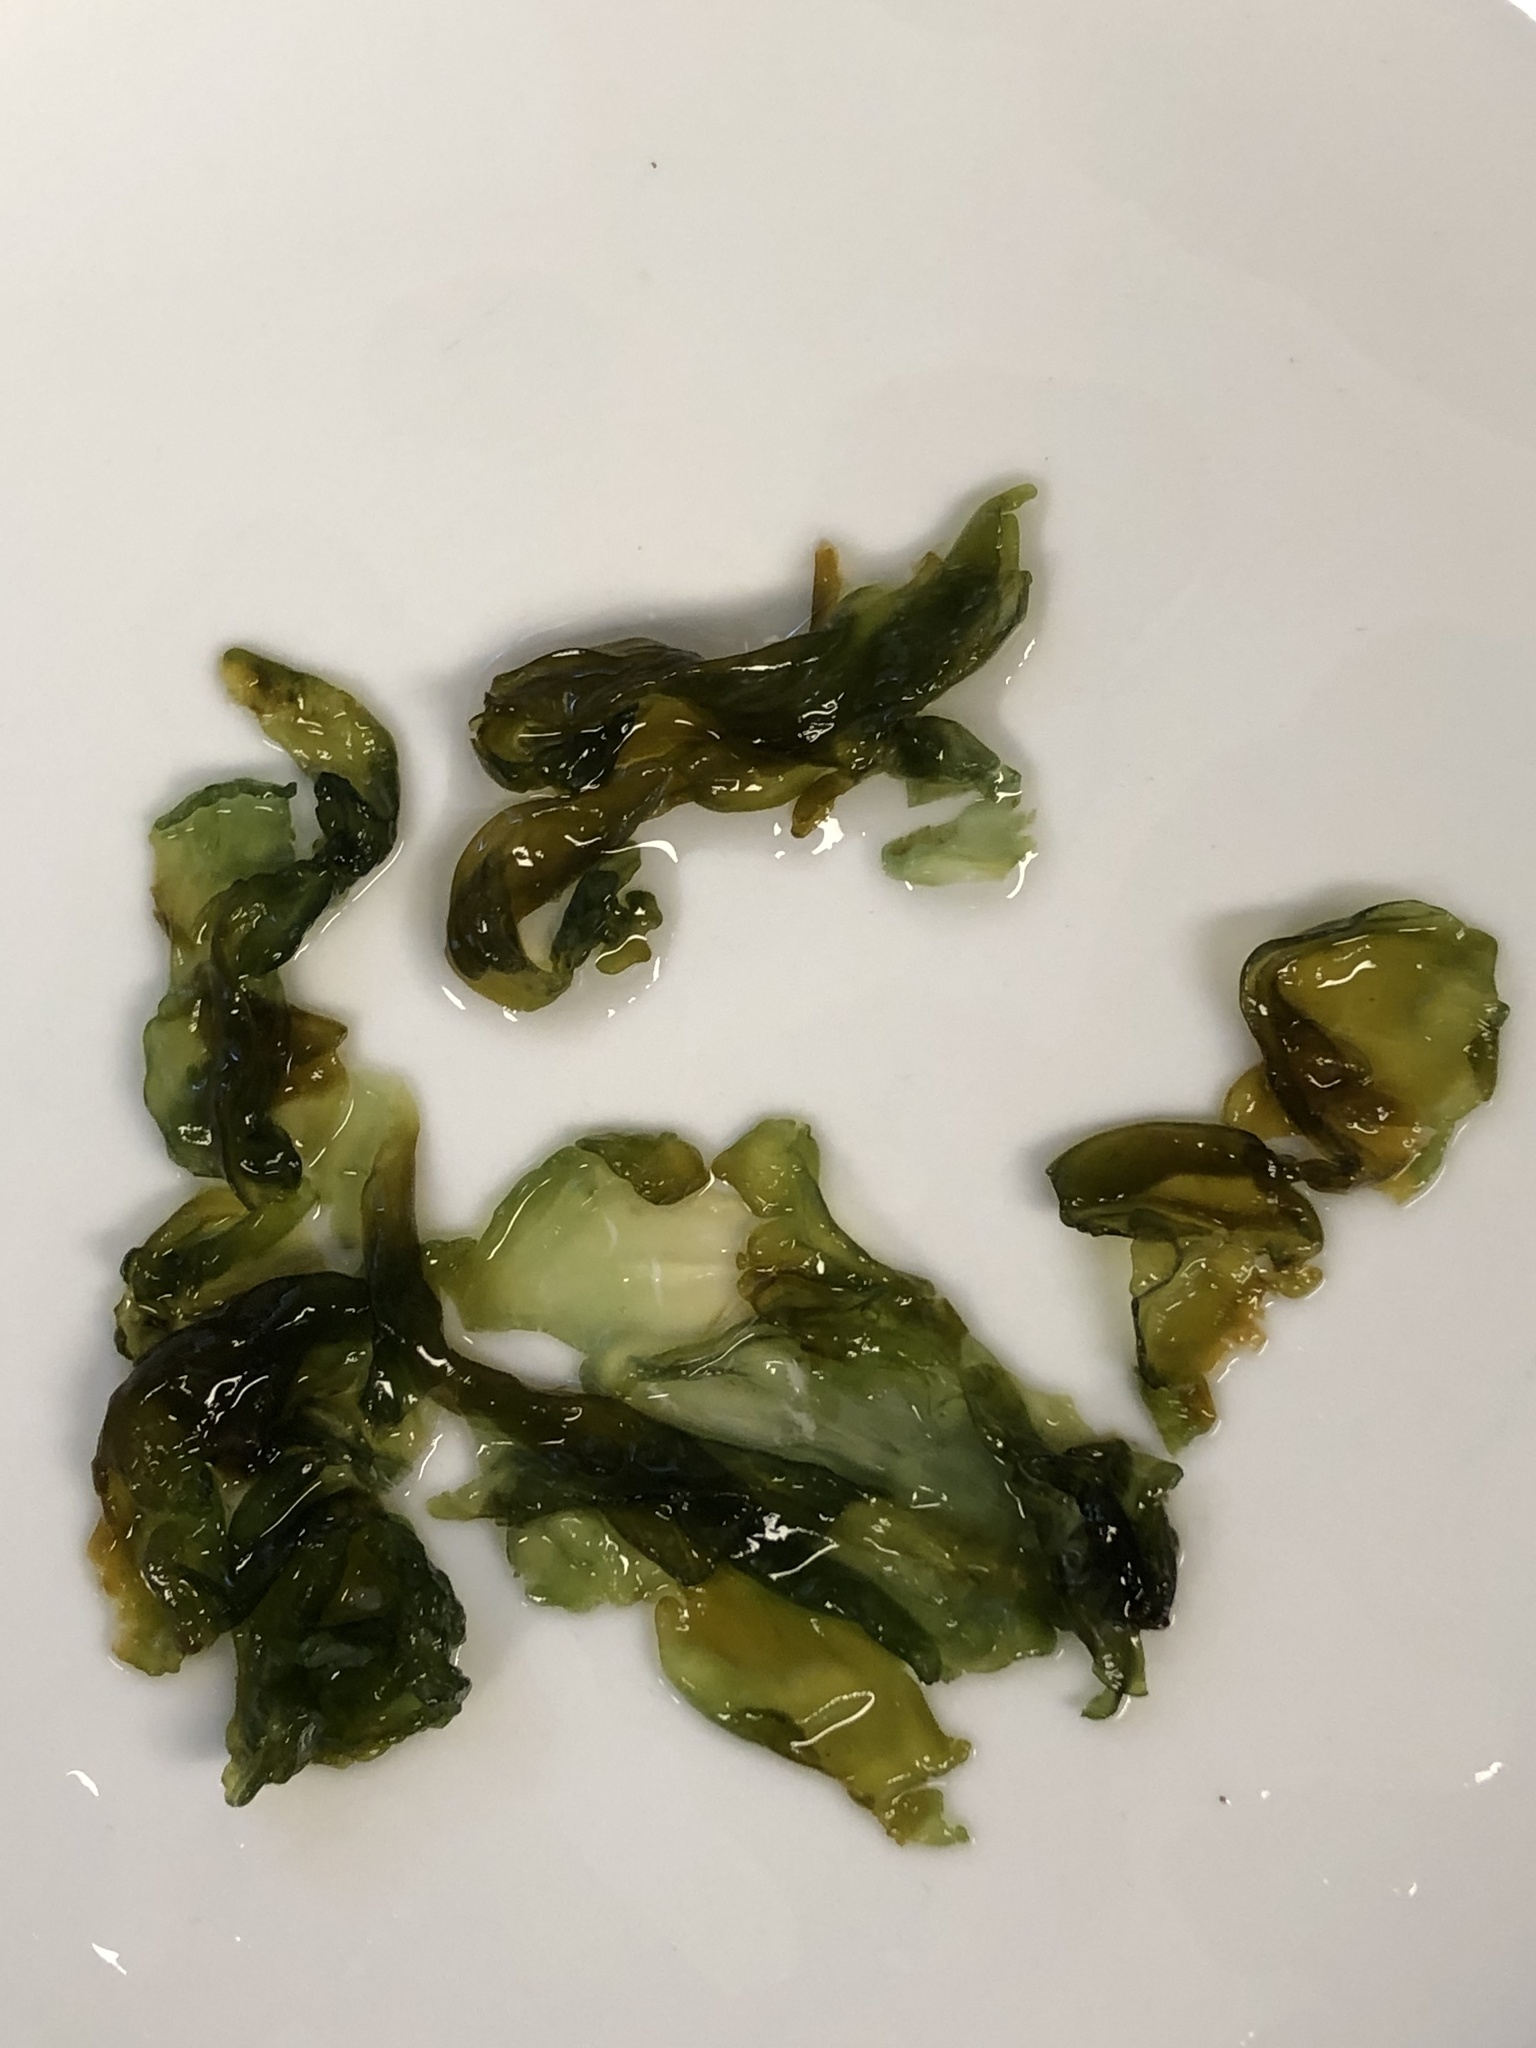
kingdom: Bacteria
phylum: Cyanobacteria
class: Cyanobacteriia
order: Cyanobacteriales
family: Nostocaceae
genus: Nostoc
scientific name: Nostoc commune
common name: Star jelly
